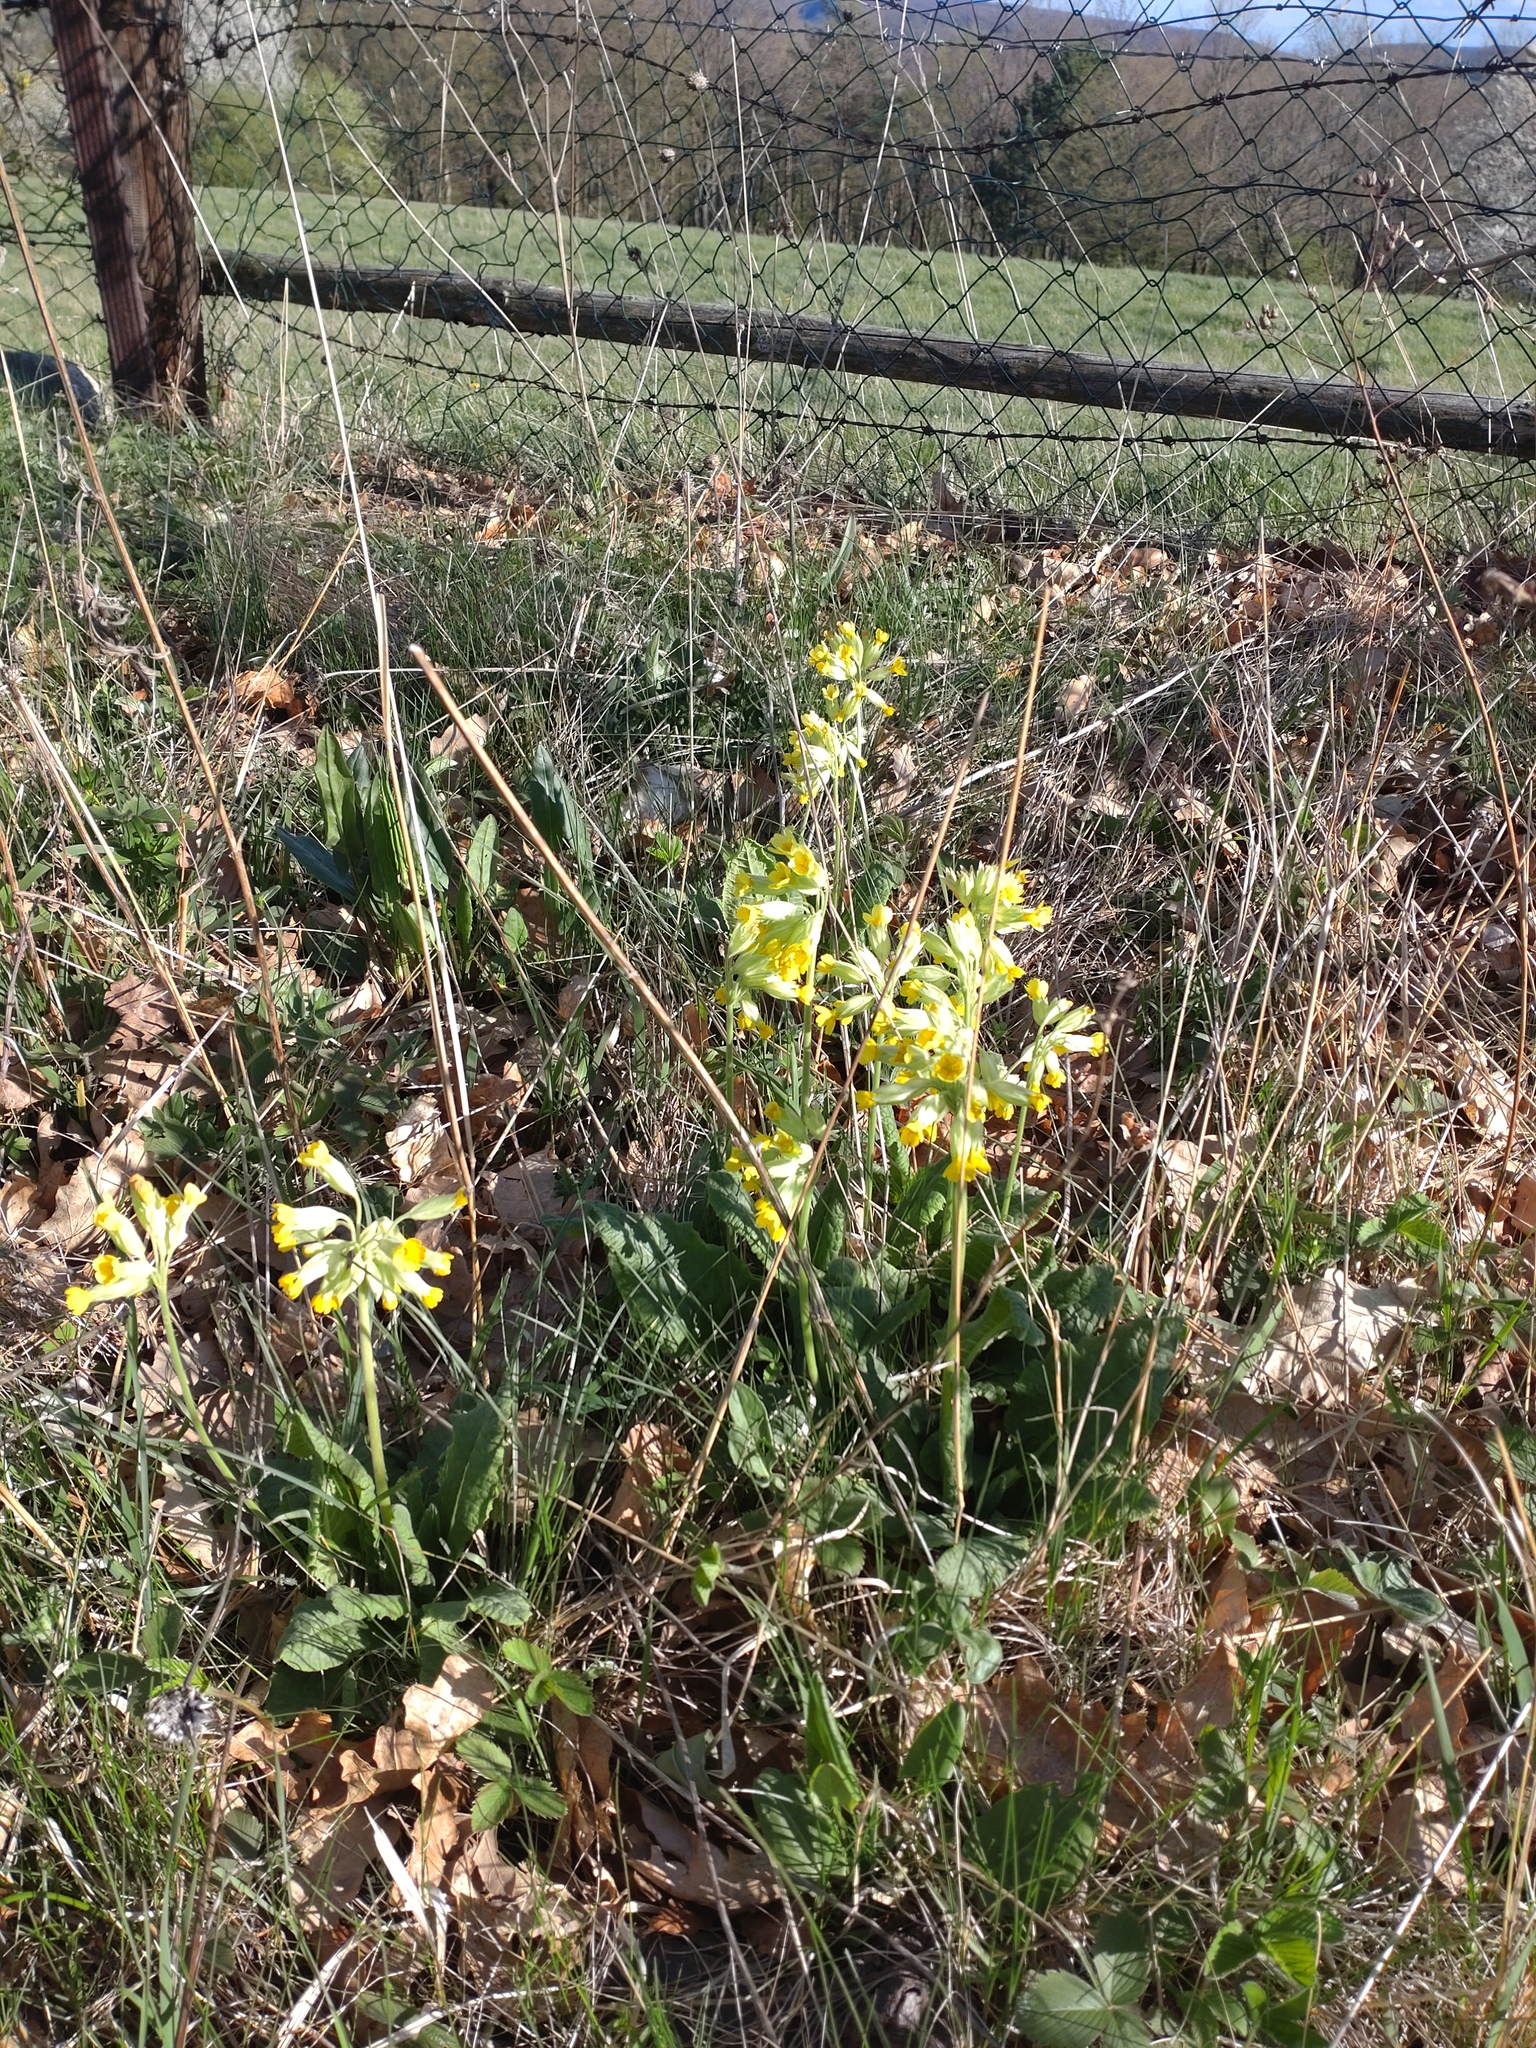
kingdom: Plantae
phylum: Tracheophyta
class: Magnoliopsida
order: Ericales
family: Primulaceae
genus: Primula
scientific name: Primula veris
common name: Cowslip
